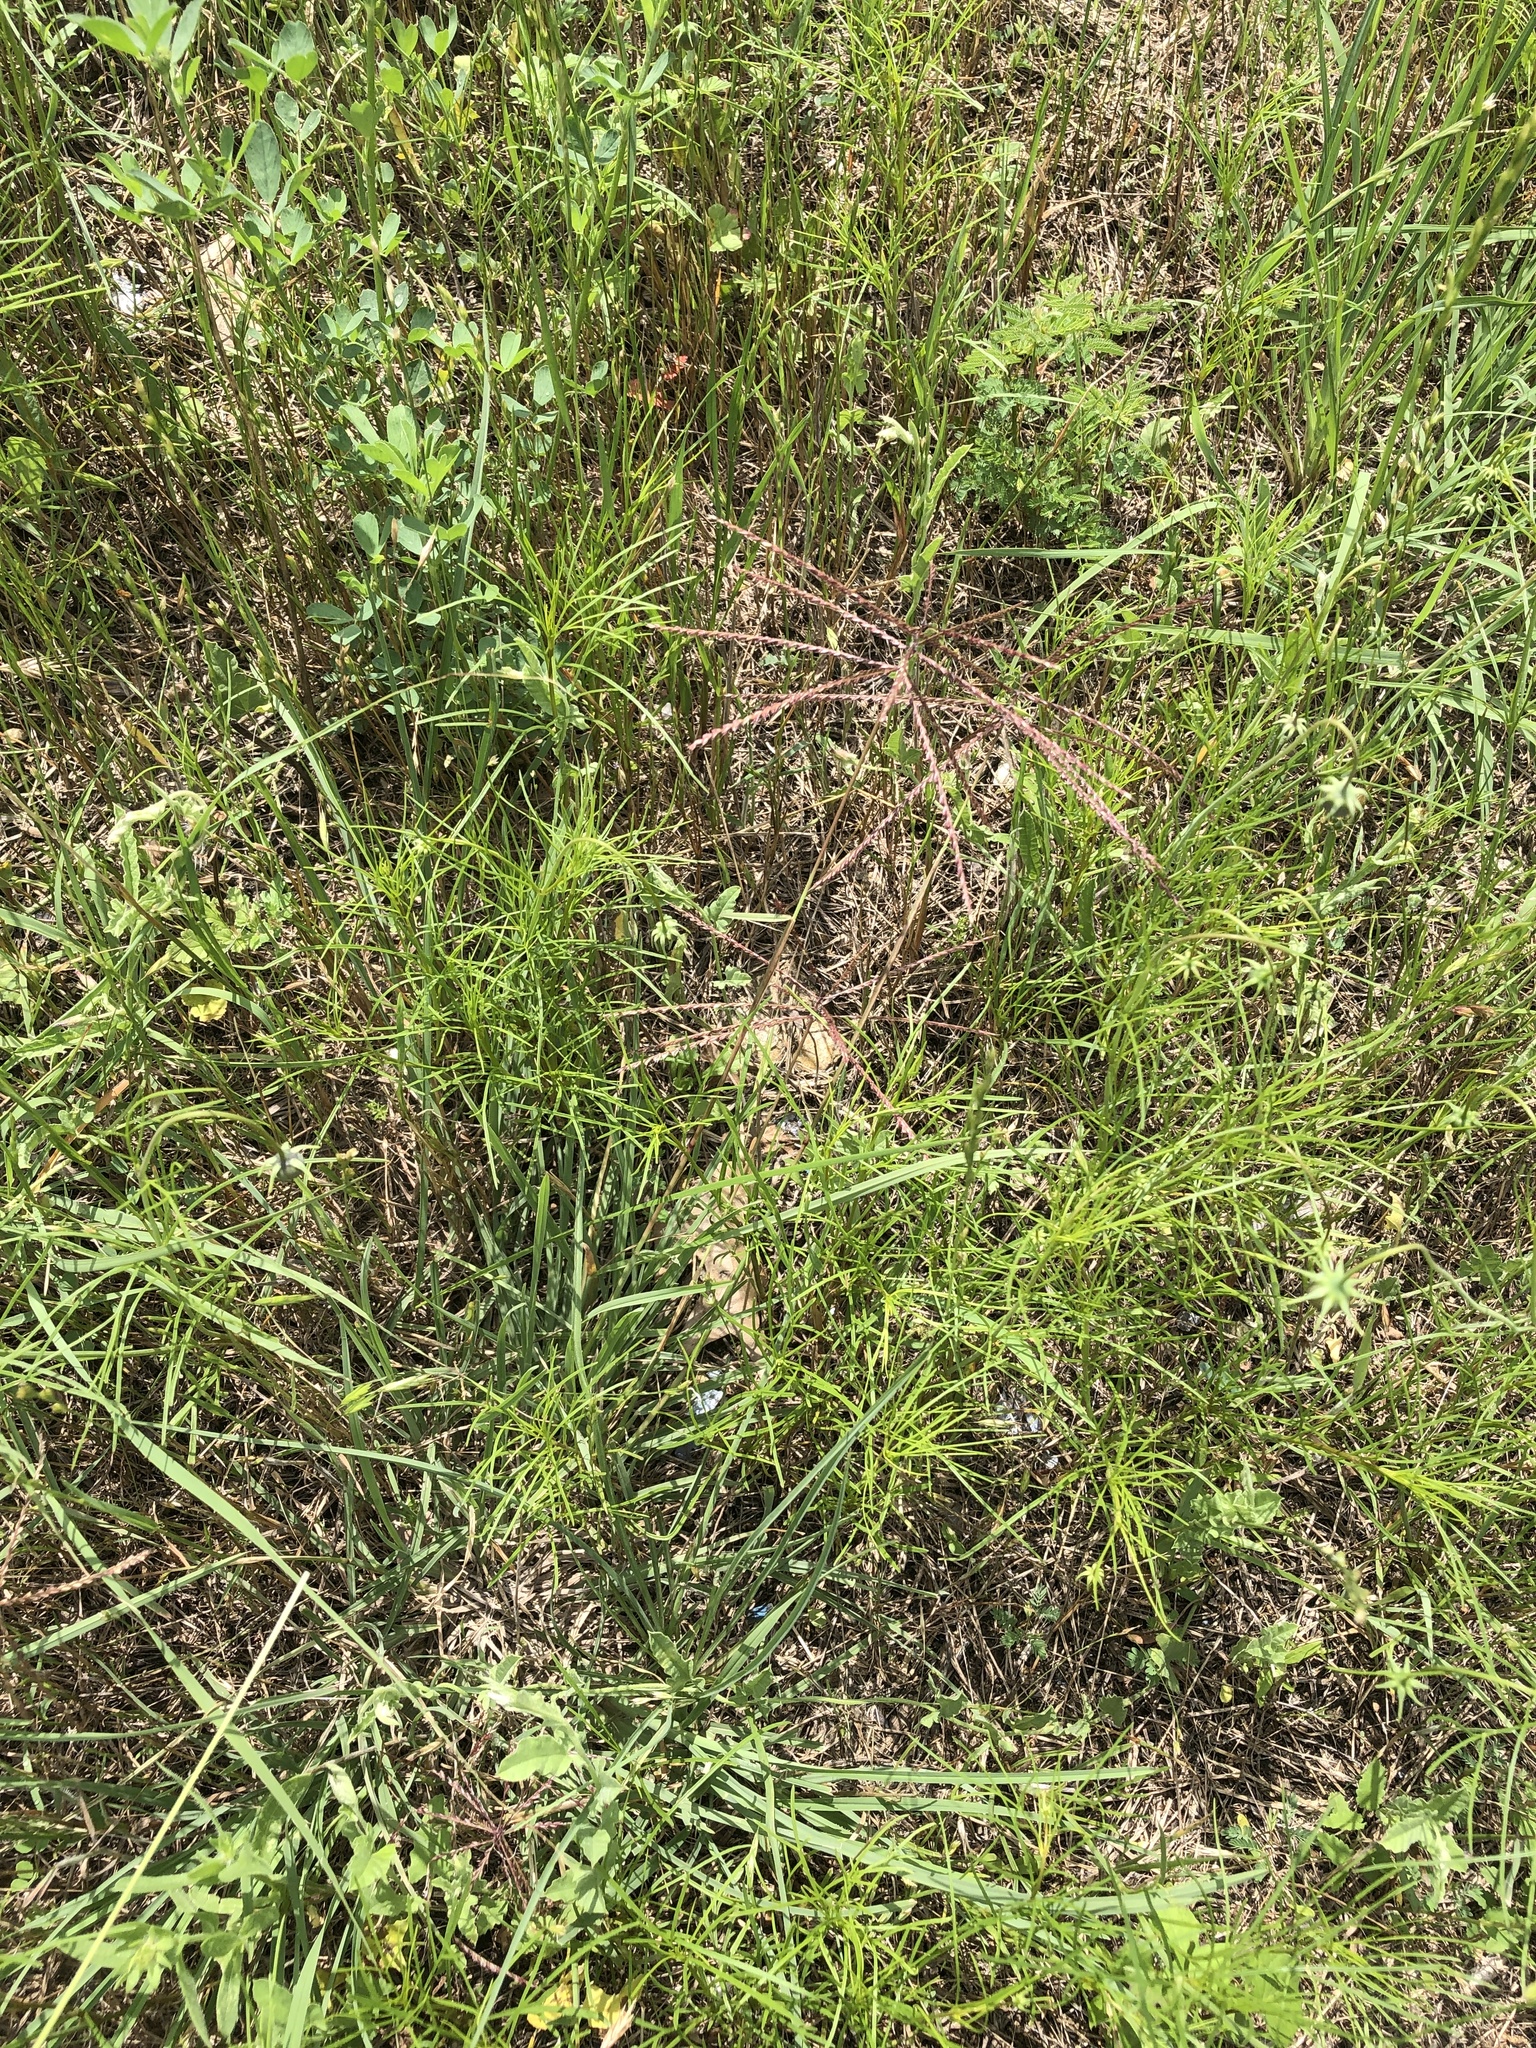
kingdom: Plantae
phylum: Tracheophyta
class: Liliopsida
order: Poales
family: Poaceae
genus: Chloris
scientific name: Chloris verticillata
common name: Tumble windmill grass
